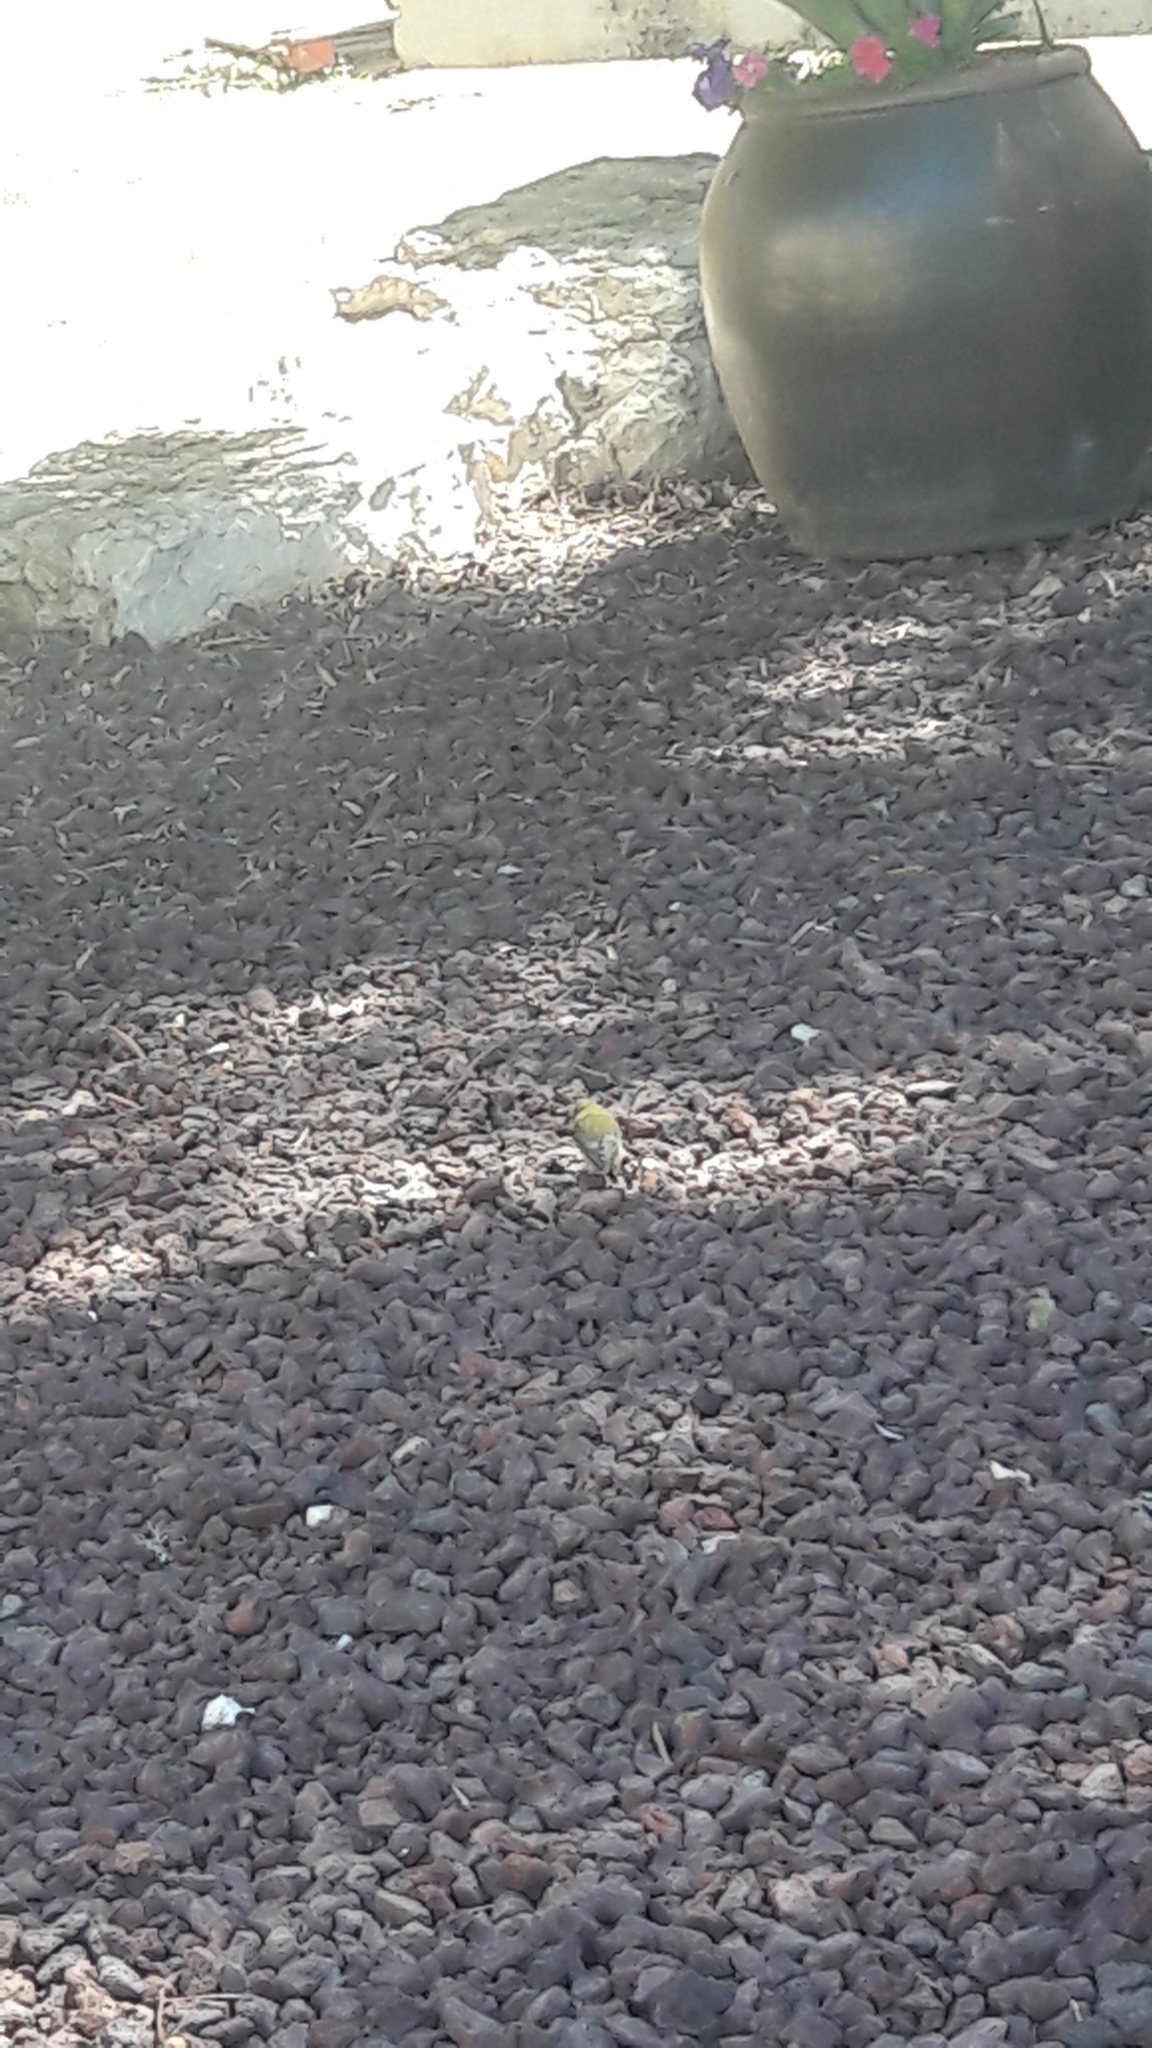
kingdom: Plantae
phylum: Tracheophyta
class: Liliopsida
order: Poales
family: Poaceae
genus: Chloris
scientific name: Chloris chloris
